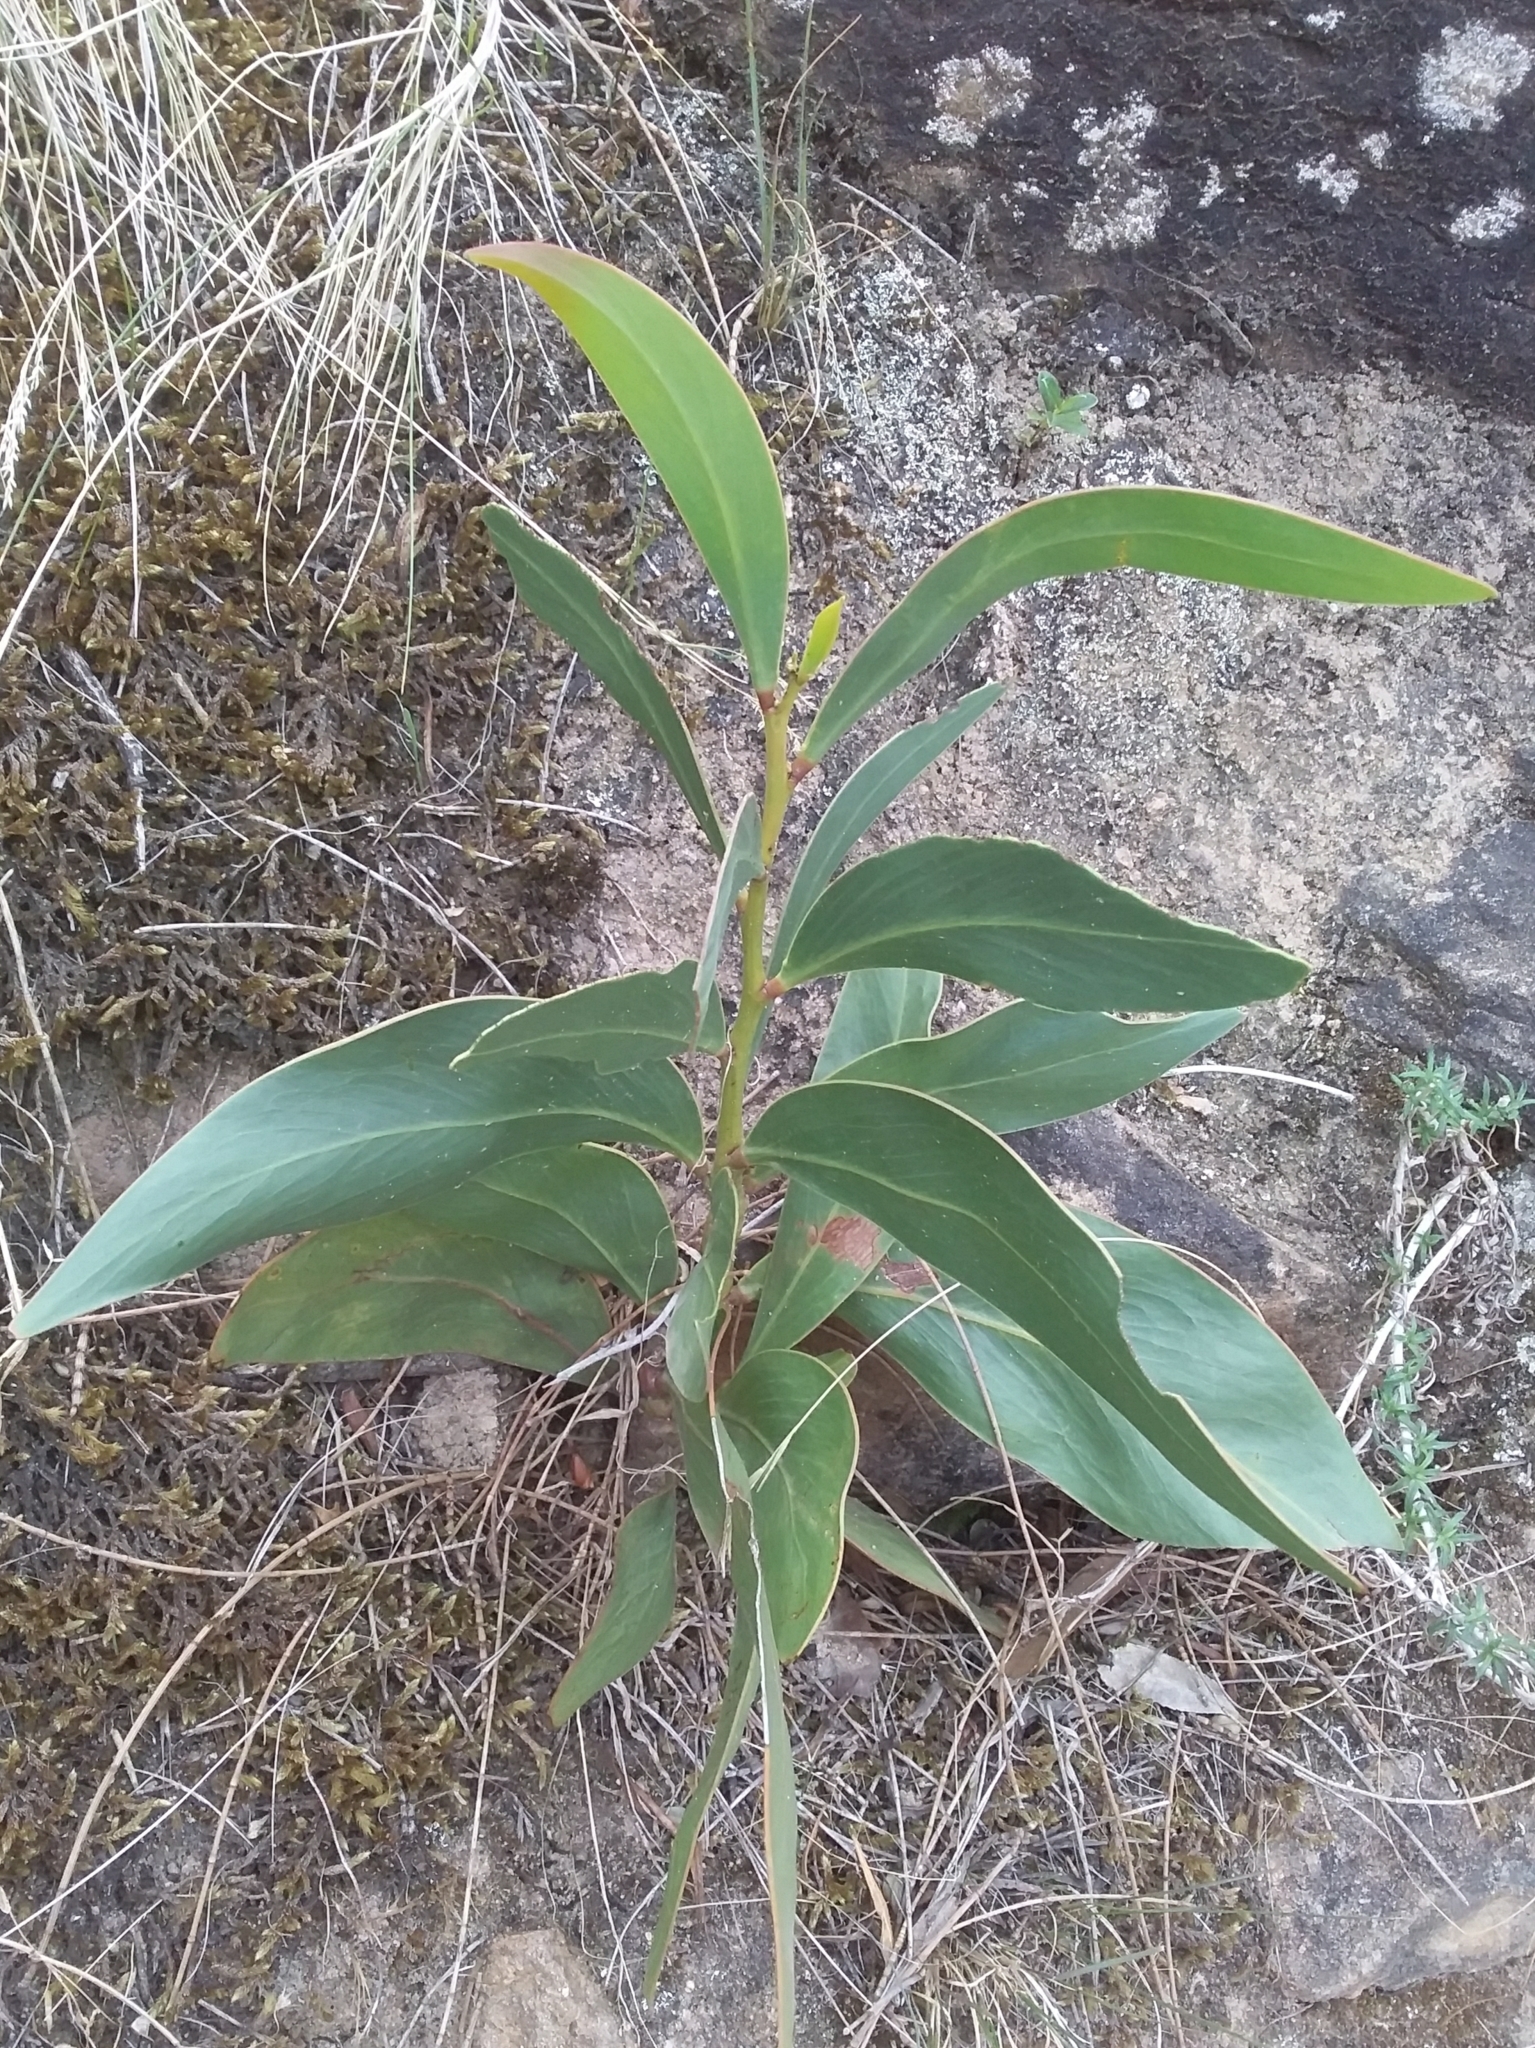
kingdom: Plantae
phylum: Tracheophyta
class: Magnoliopsida
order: Fabales
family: Fabaceae
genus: Acacia
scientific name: Acacia pycnantha
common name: Golden wattle
